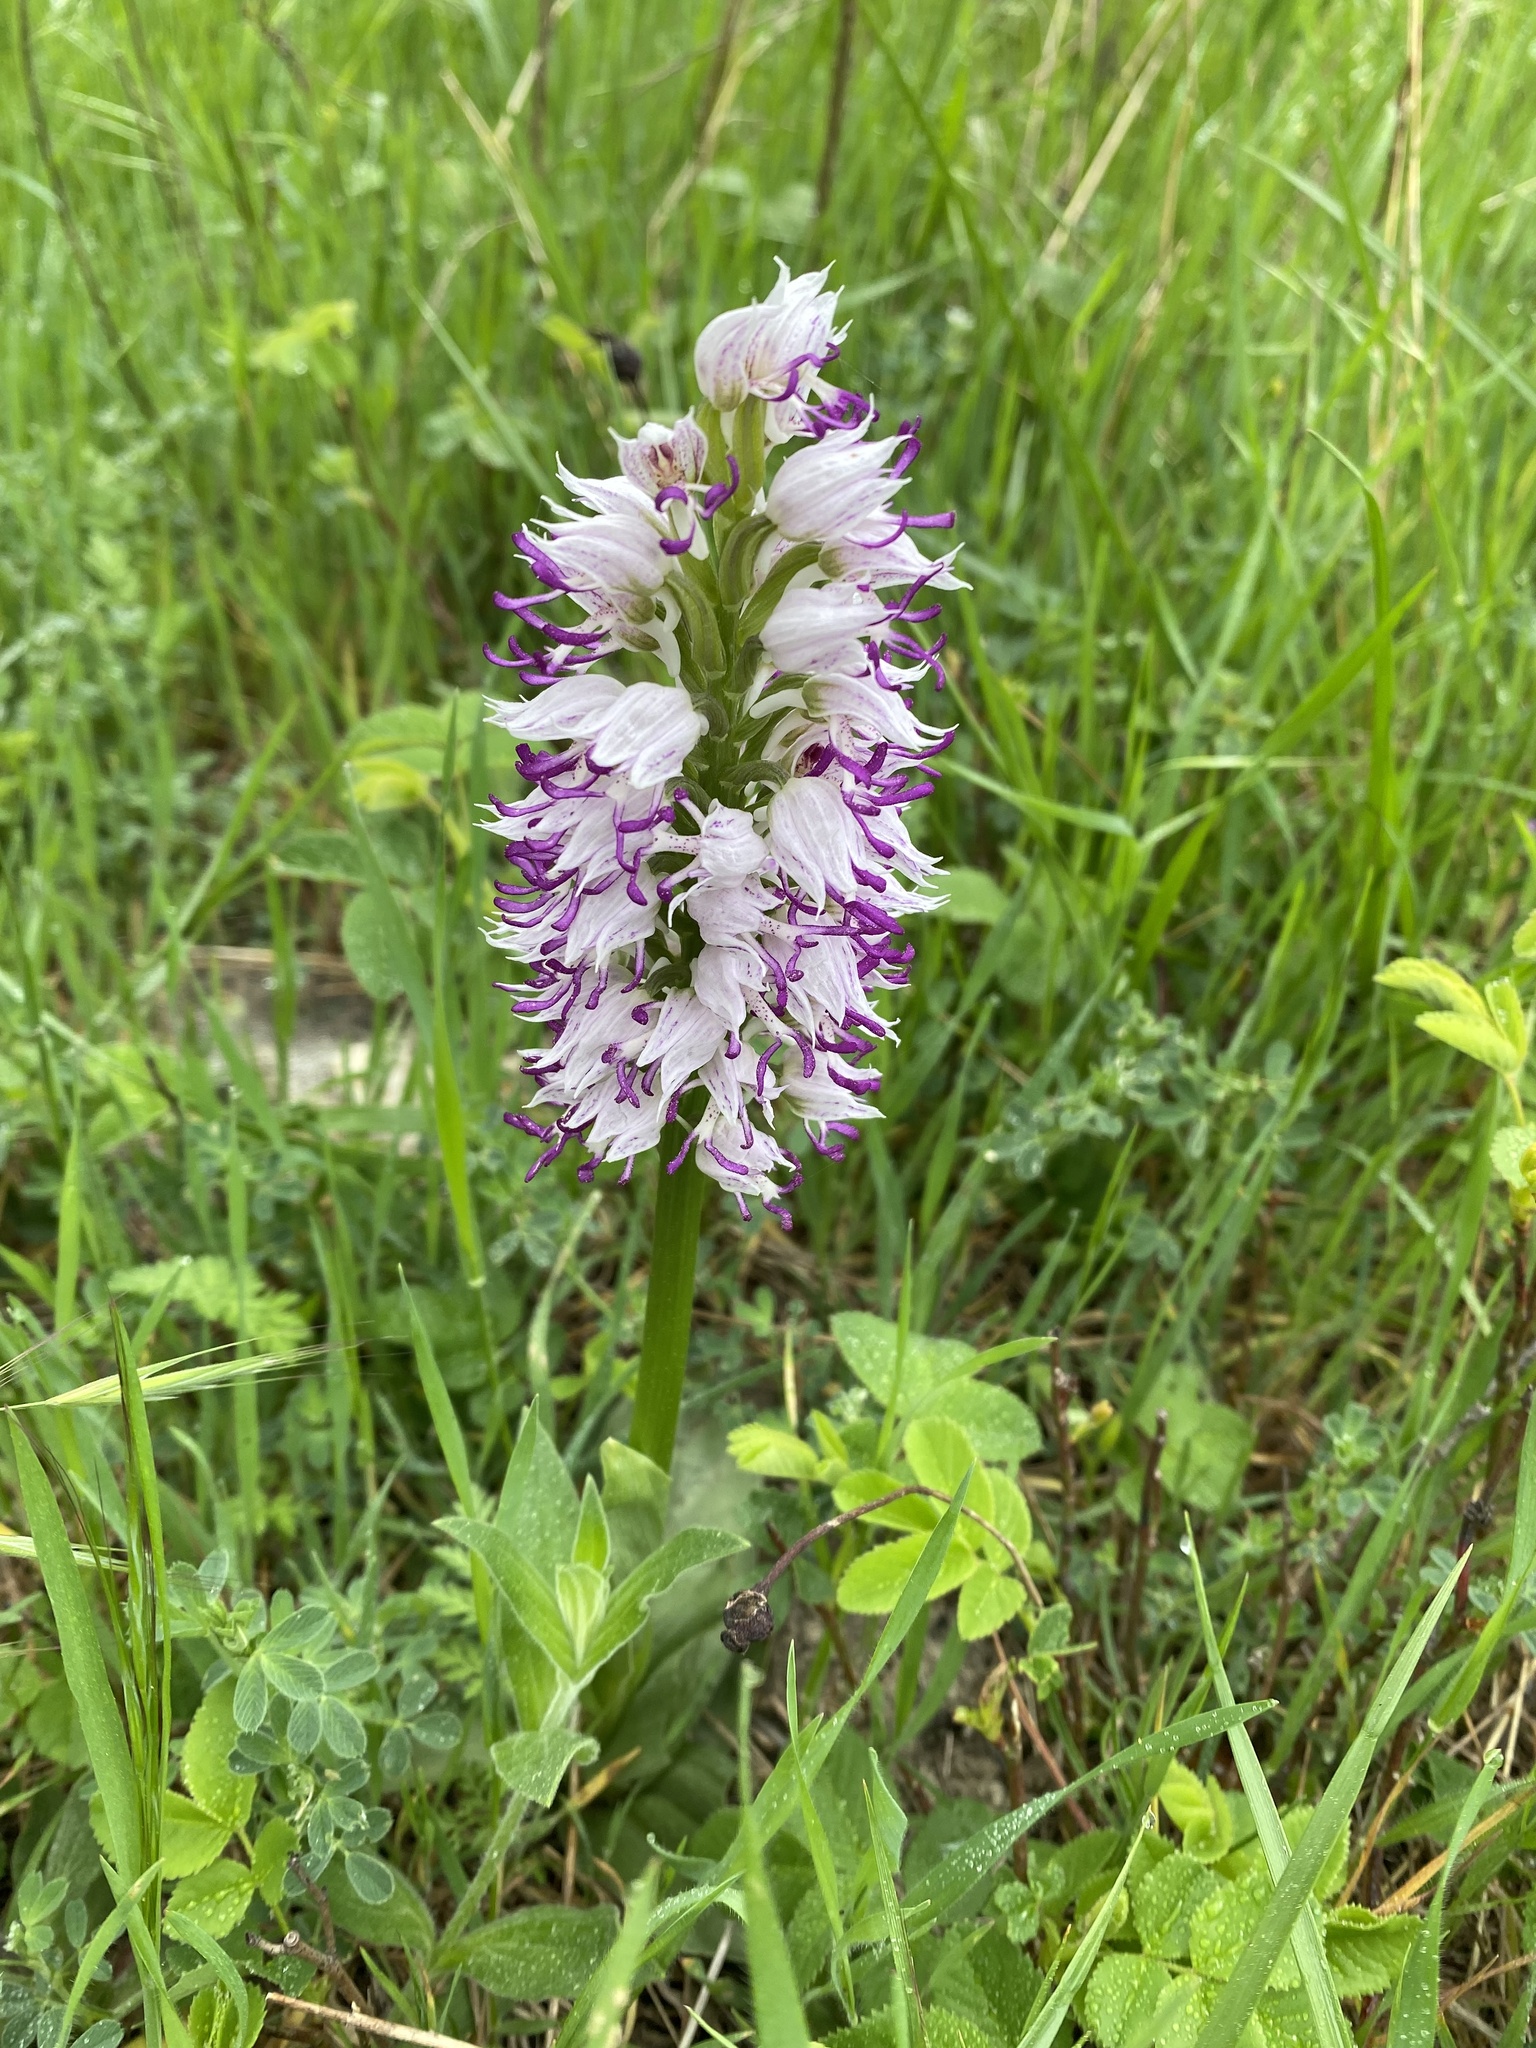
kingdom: Plantae
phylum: Tracheophyta
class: Liliopsida
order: Asparagales
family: Orchidaceae
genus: Orchis
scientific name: Orchis simia
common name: Monkey orchid
